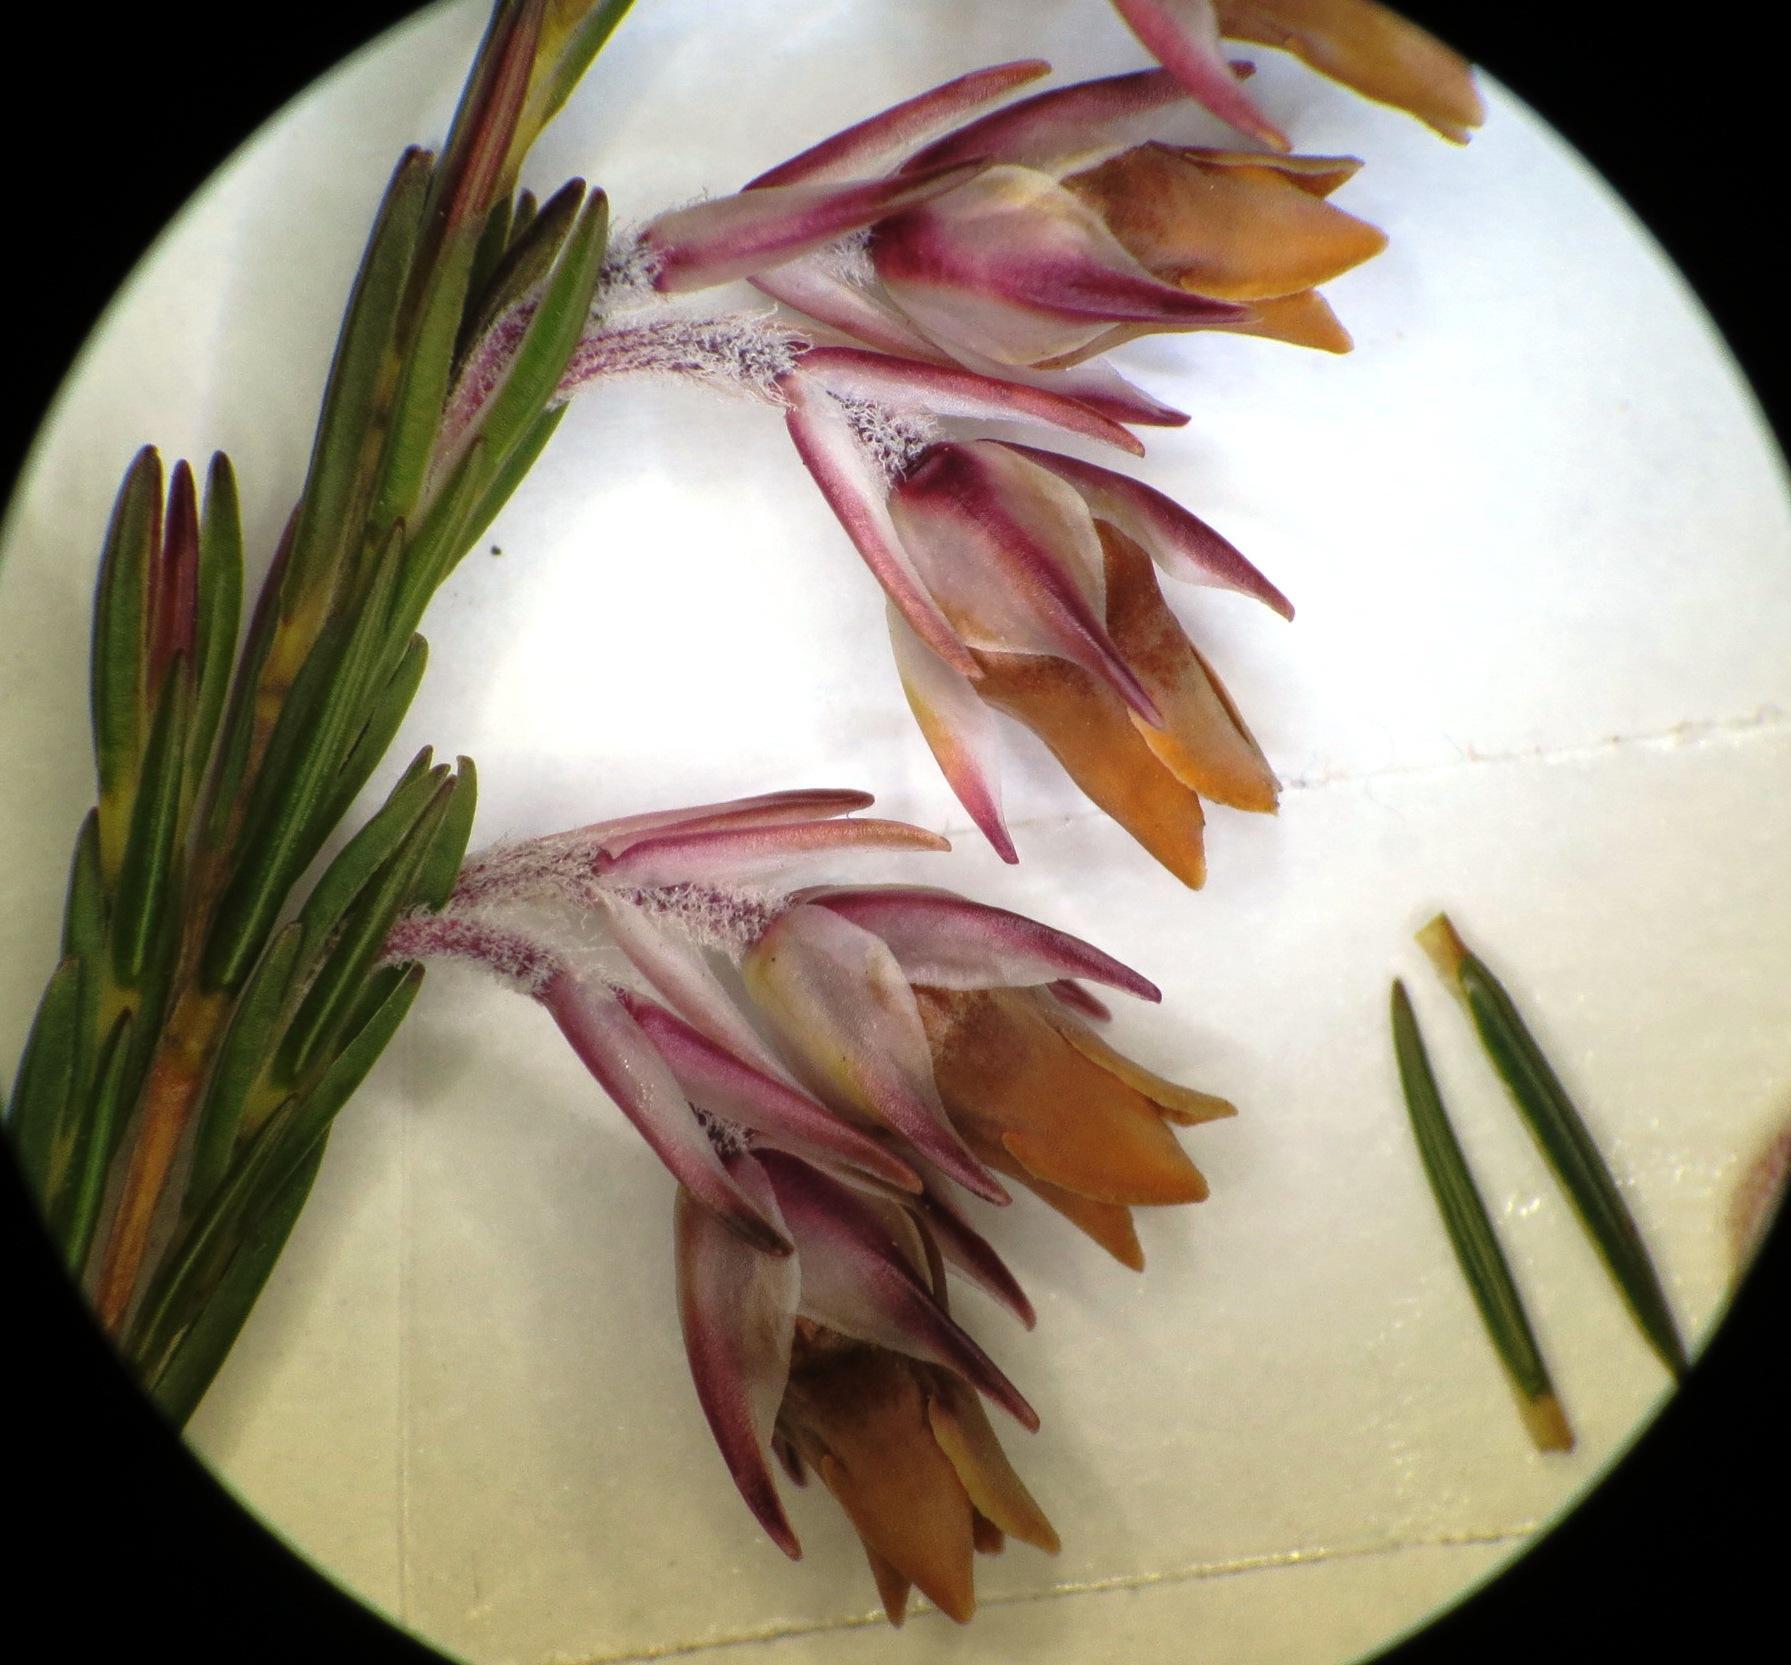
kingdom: Plantae
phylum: Tracheophyta
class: Magnoliopsida
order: Ericales
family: Ericaceae
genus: Erica
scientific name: Erica dianthifolia
